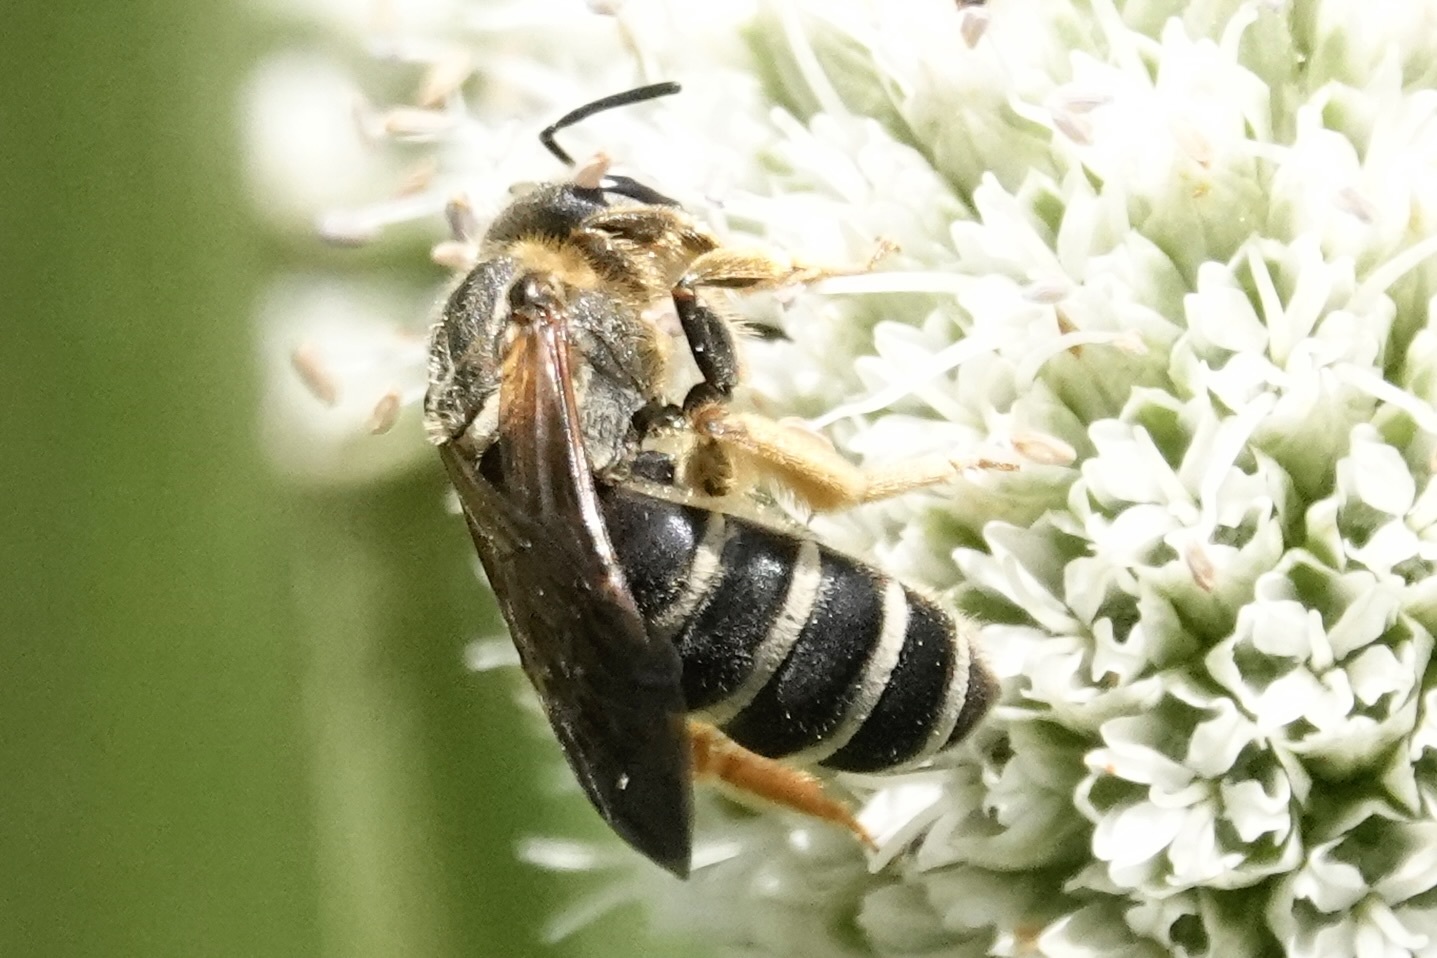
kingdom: Animalia
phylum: Arthropoda
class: Insecta
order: Hymenoptera
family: Halictidae
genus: Halictus
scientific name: Halictus parallelus
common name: Parallel-striped sweat bee
